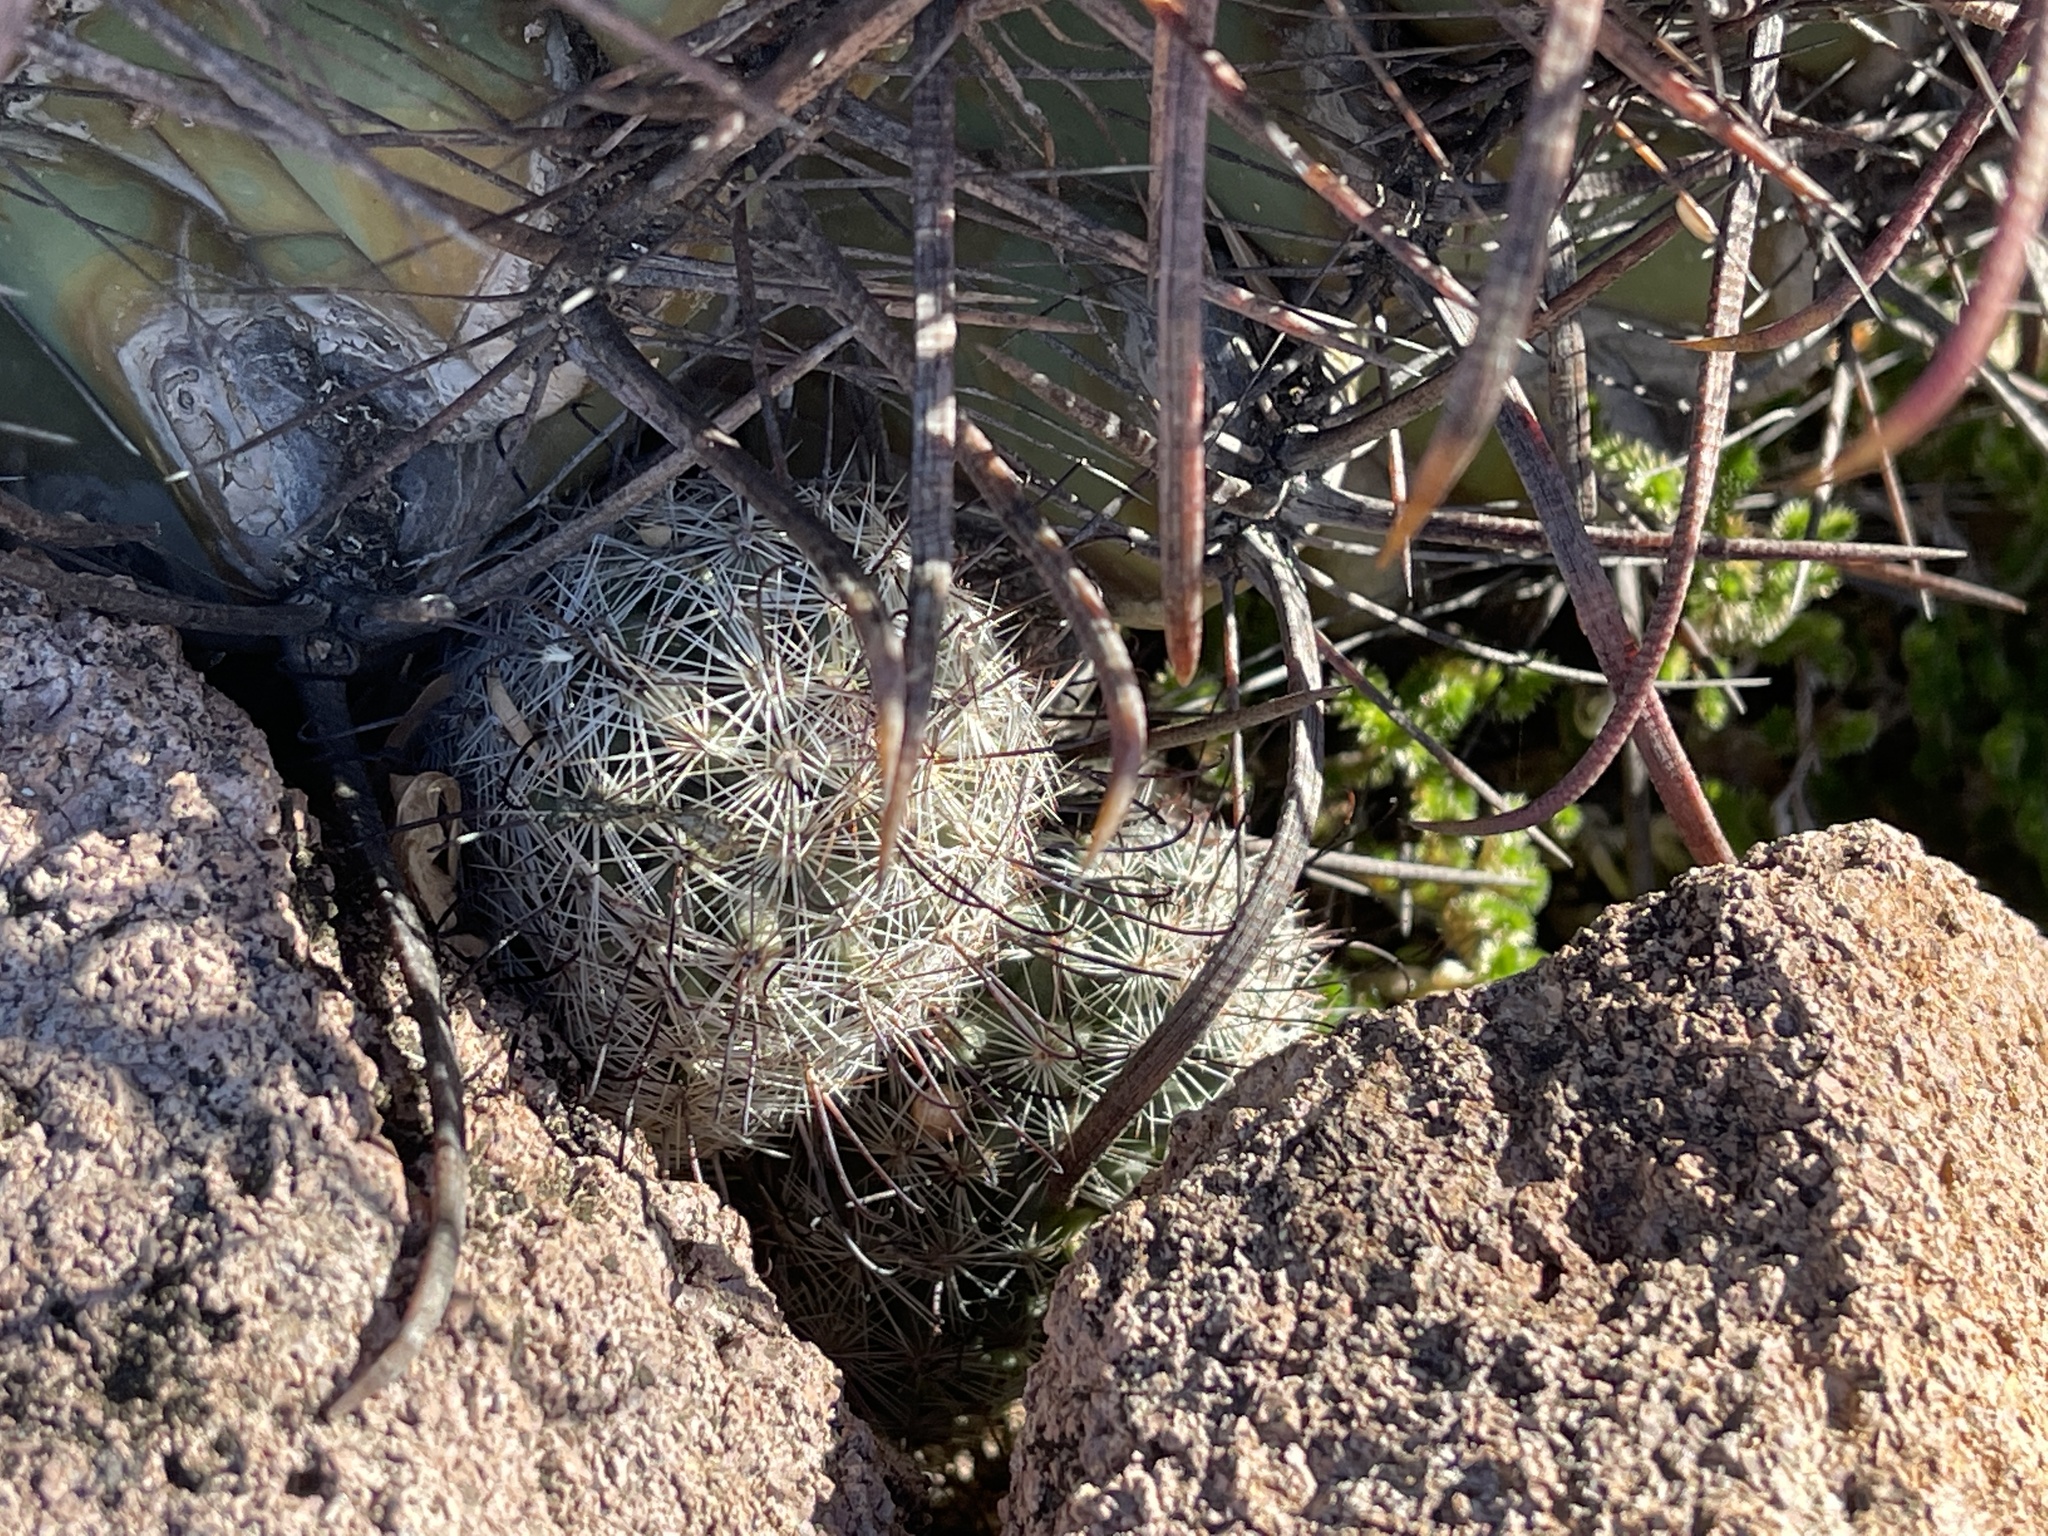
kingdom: Plantae
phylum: Tracheophyta
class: Magnoliopsida
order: Caryophyllales
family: Cactaceae
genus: Cochemiea
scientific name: Cochemiea grahamii
